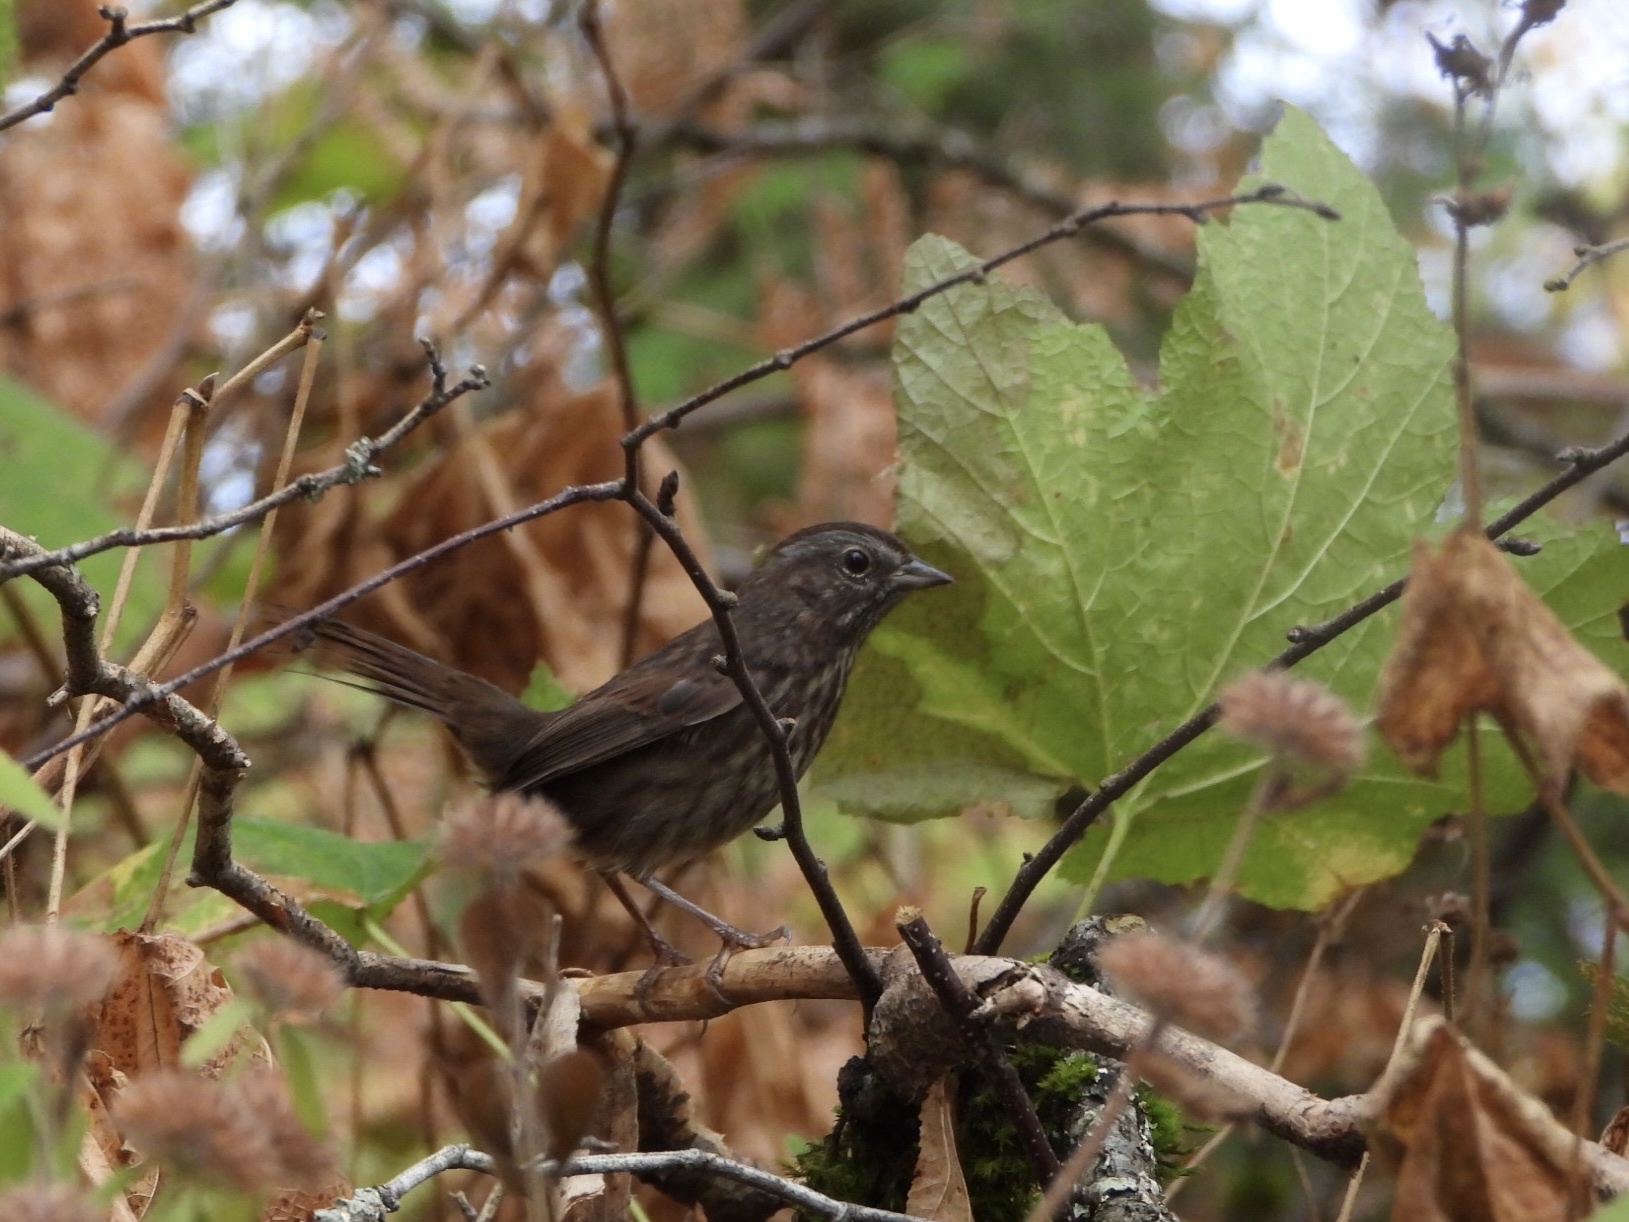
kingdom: Animalia
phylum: Chordata
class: Aves
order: Passeriformes
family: Passerellidae
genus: Melospiza
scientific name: Melospiza melodia
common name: Song sparrow
